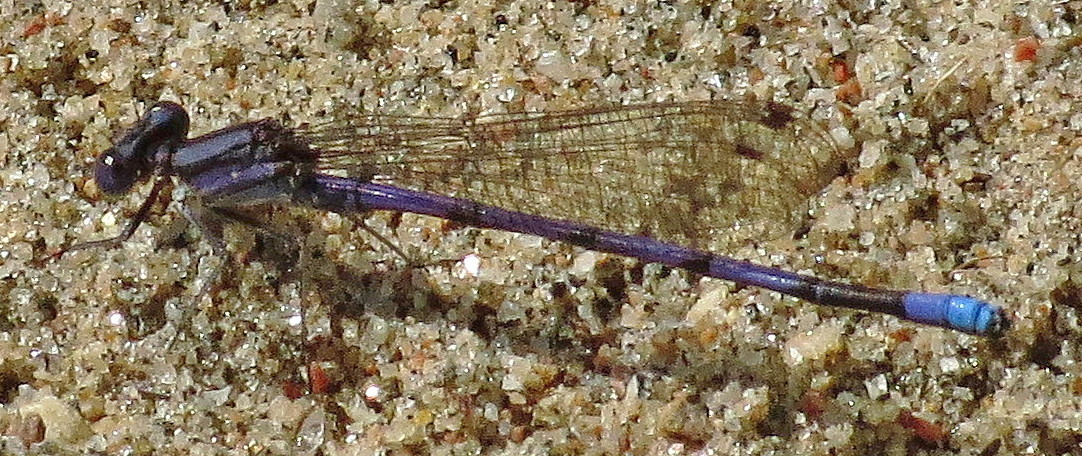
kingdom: Animalia
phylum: Arthropoda
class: Insecta
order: Odonata
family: Coenagrionidae
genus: Argia
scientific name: Argia fumipennis
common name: Variable dancer
